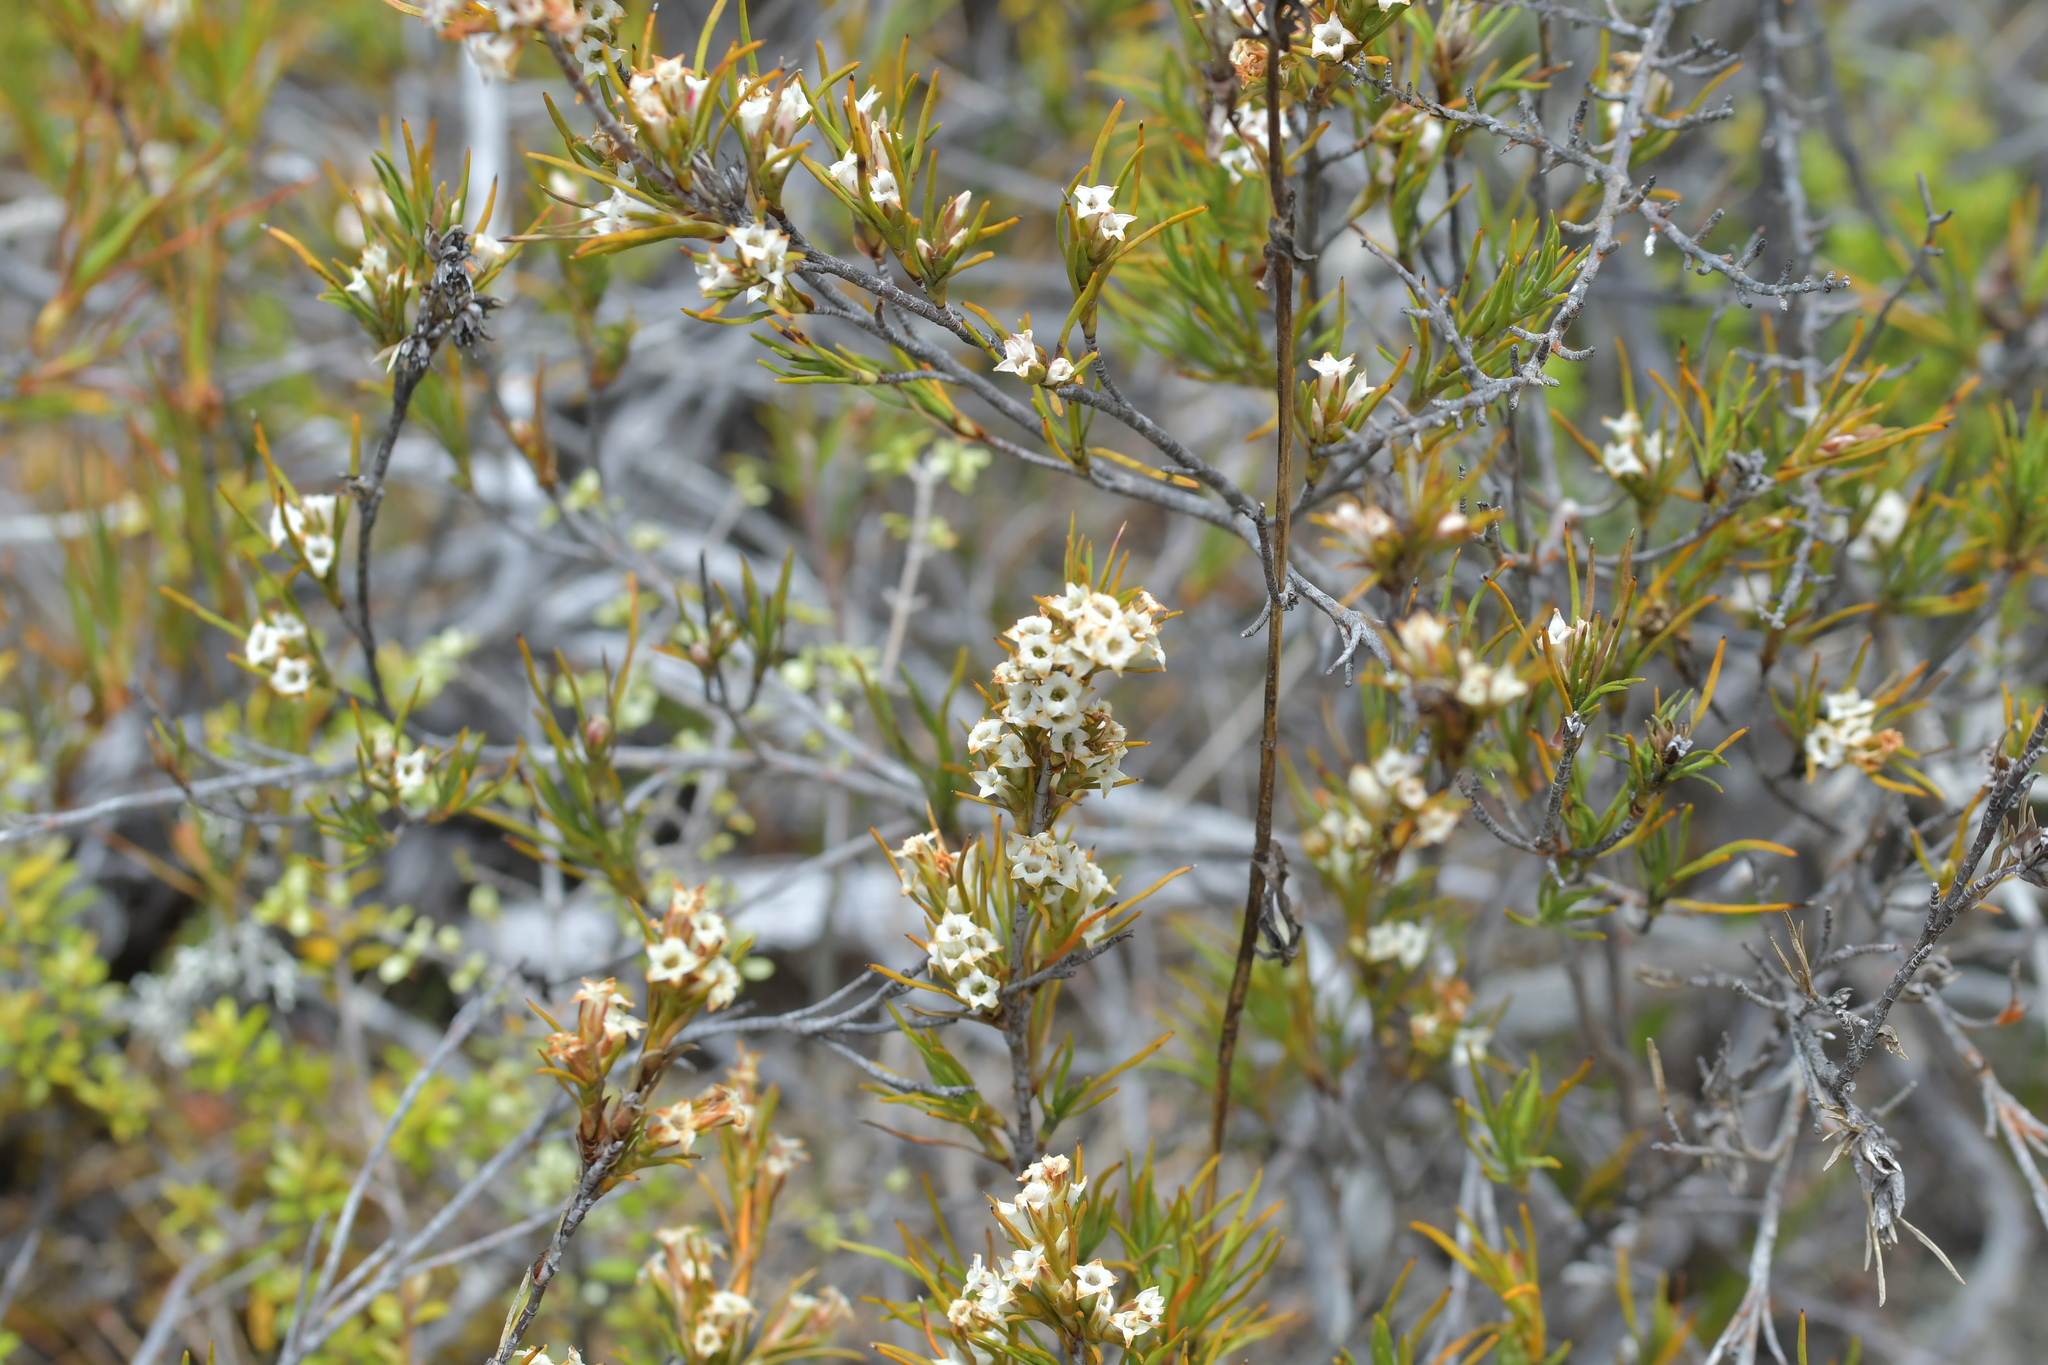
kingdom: Plantae
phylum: Tracheophyta
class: Magnoliopsida
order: Ericales
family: Ericaceae
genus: Dracophyllum
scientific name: Dracophyllum rosmarinifolium
